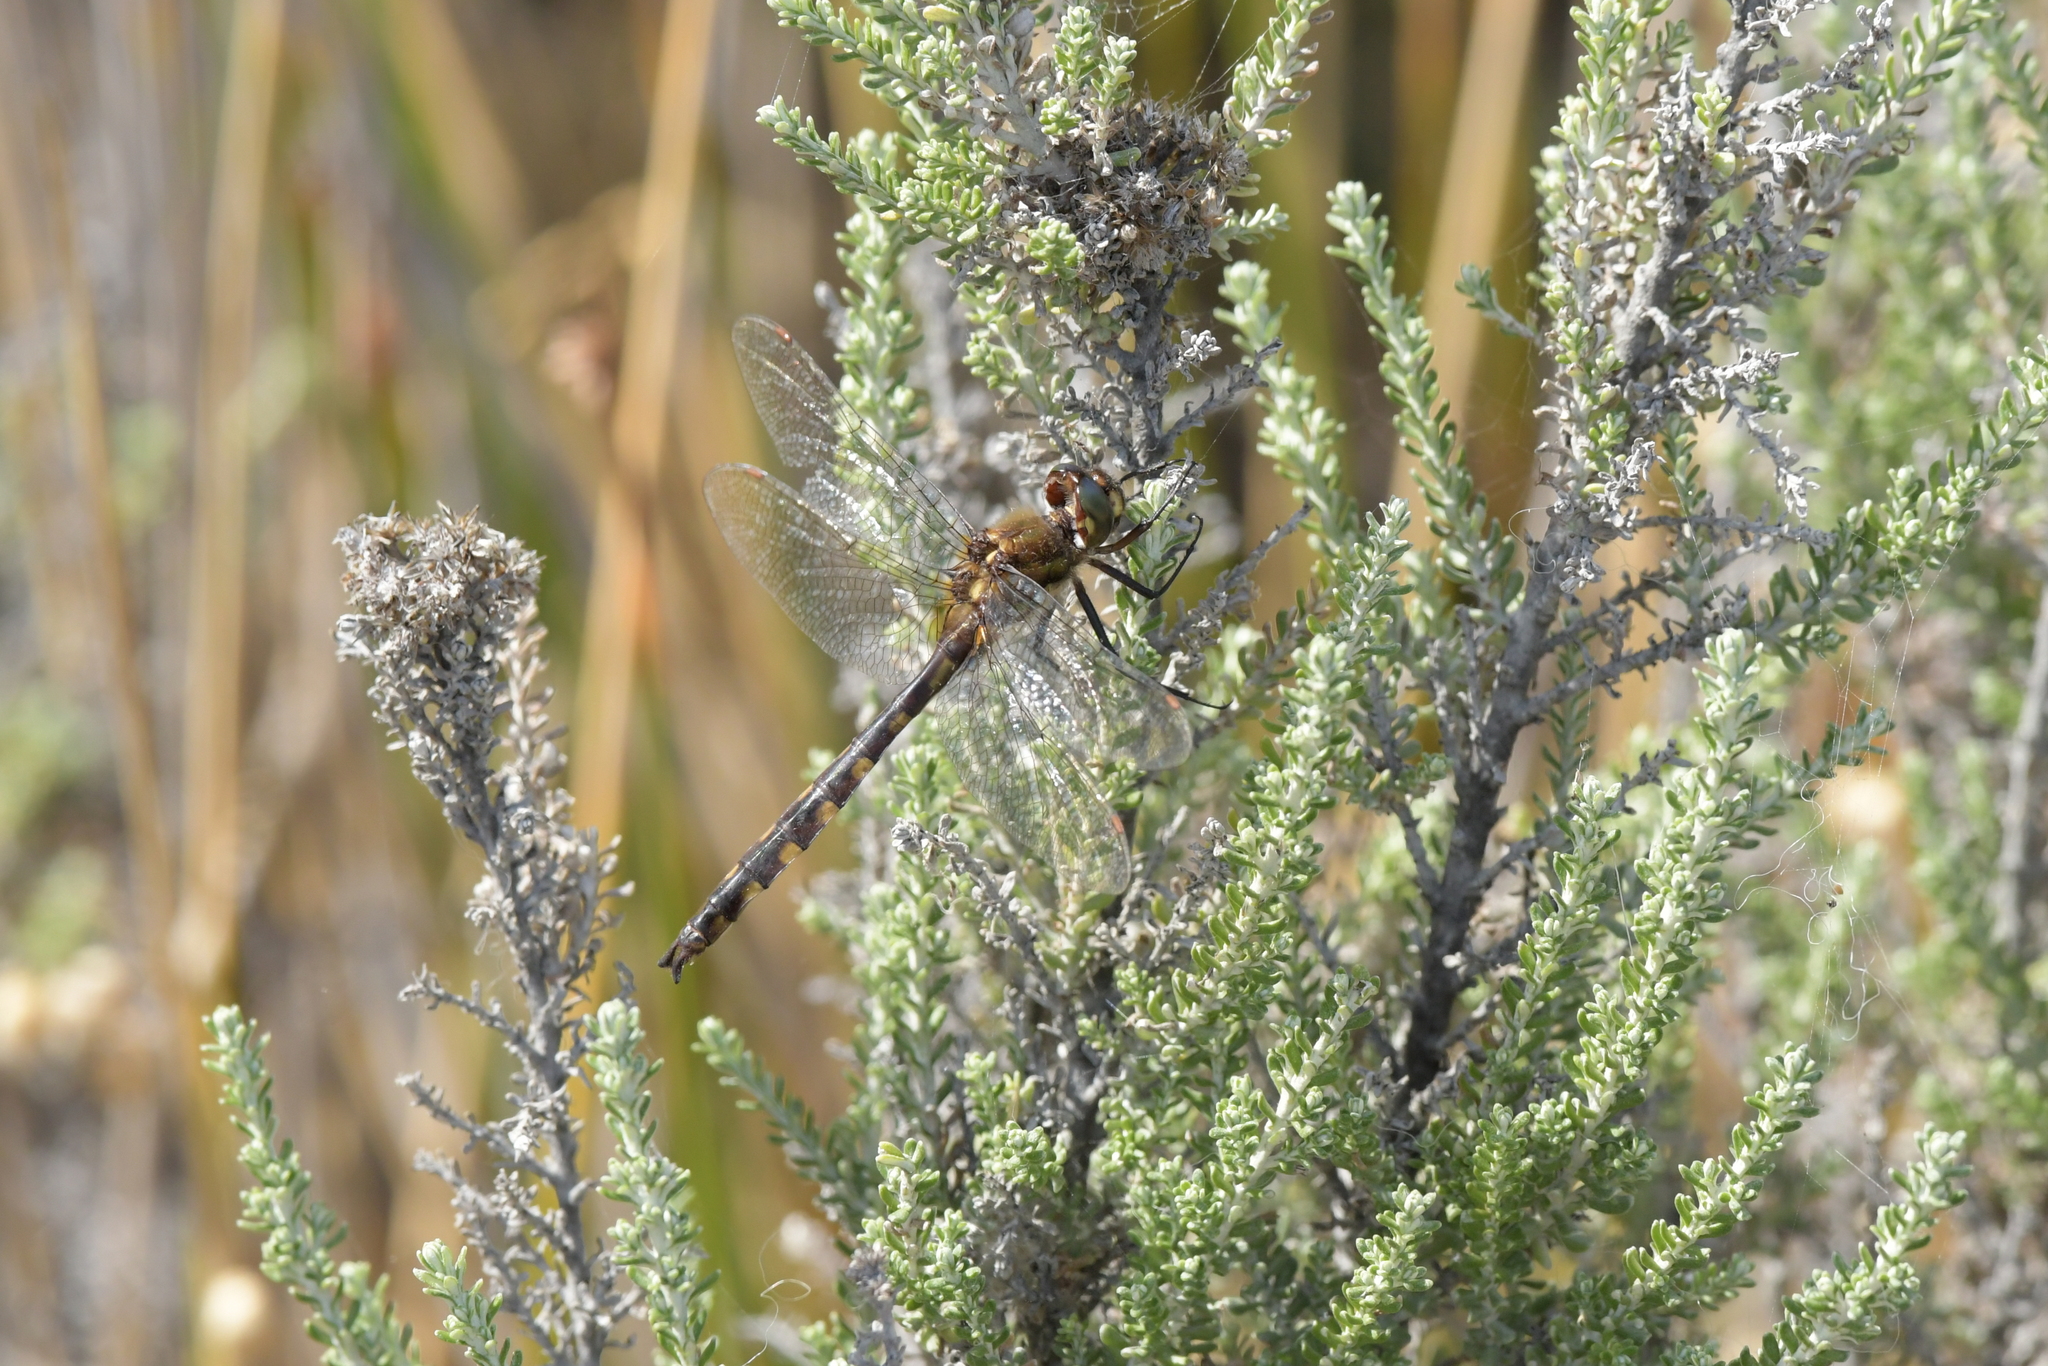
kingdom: Animalia
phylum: Arthropoda
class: Insecta
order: Odonata
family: Corduliidae
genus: Procordulia
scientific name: Procordulia grayi
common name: Yellow spotted dragonfly
